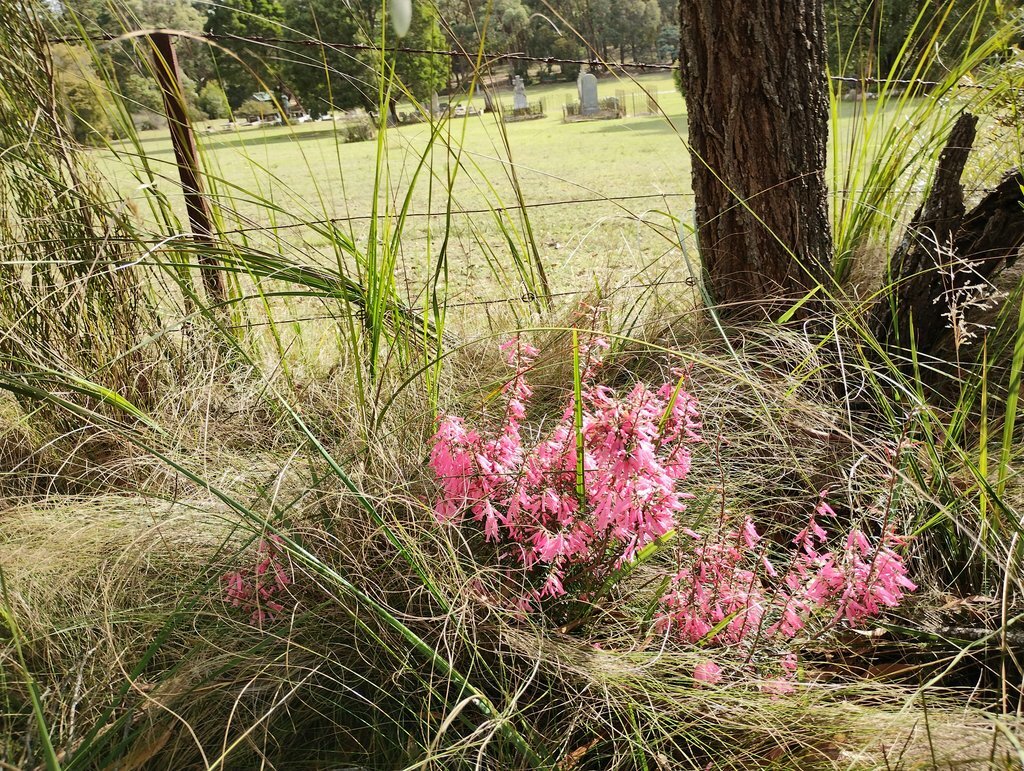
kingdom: Plantae
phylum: Tracheophyta
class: Magnoliopsida
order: Ericales
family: Ericaceae
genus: Epacris
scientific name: Epacris impressa
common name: Common-heath
